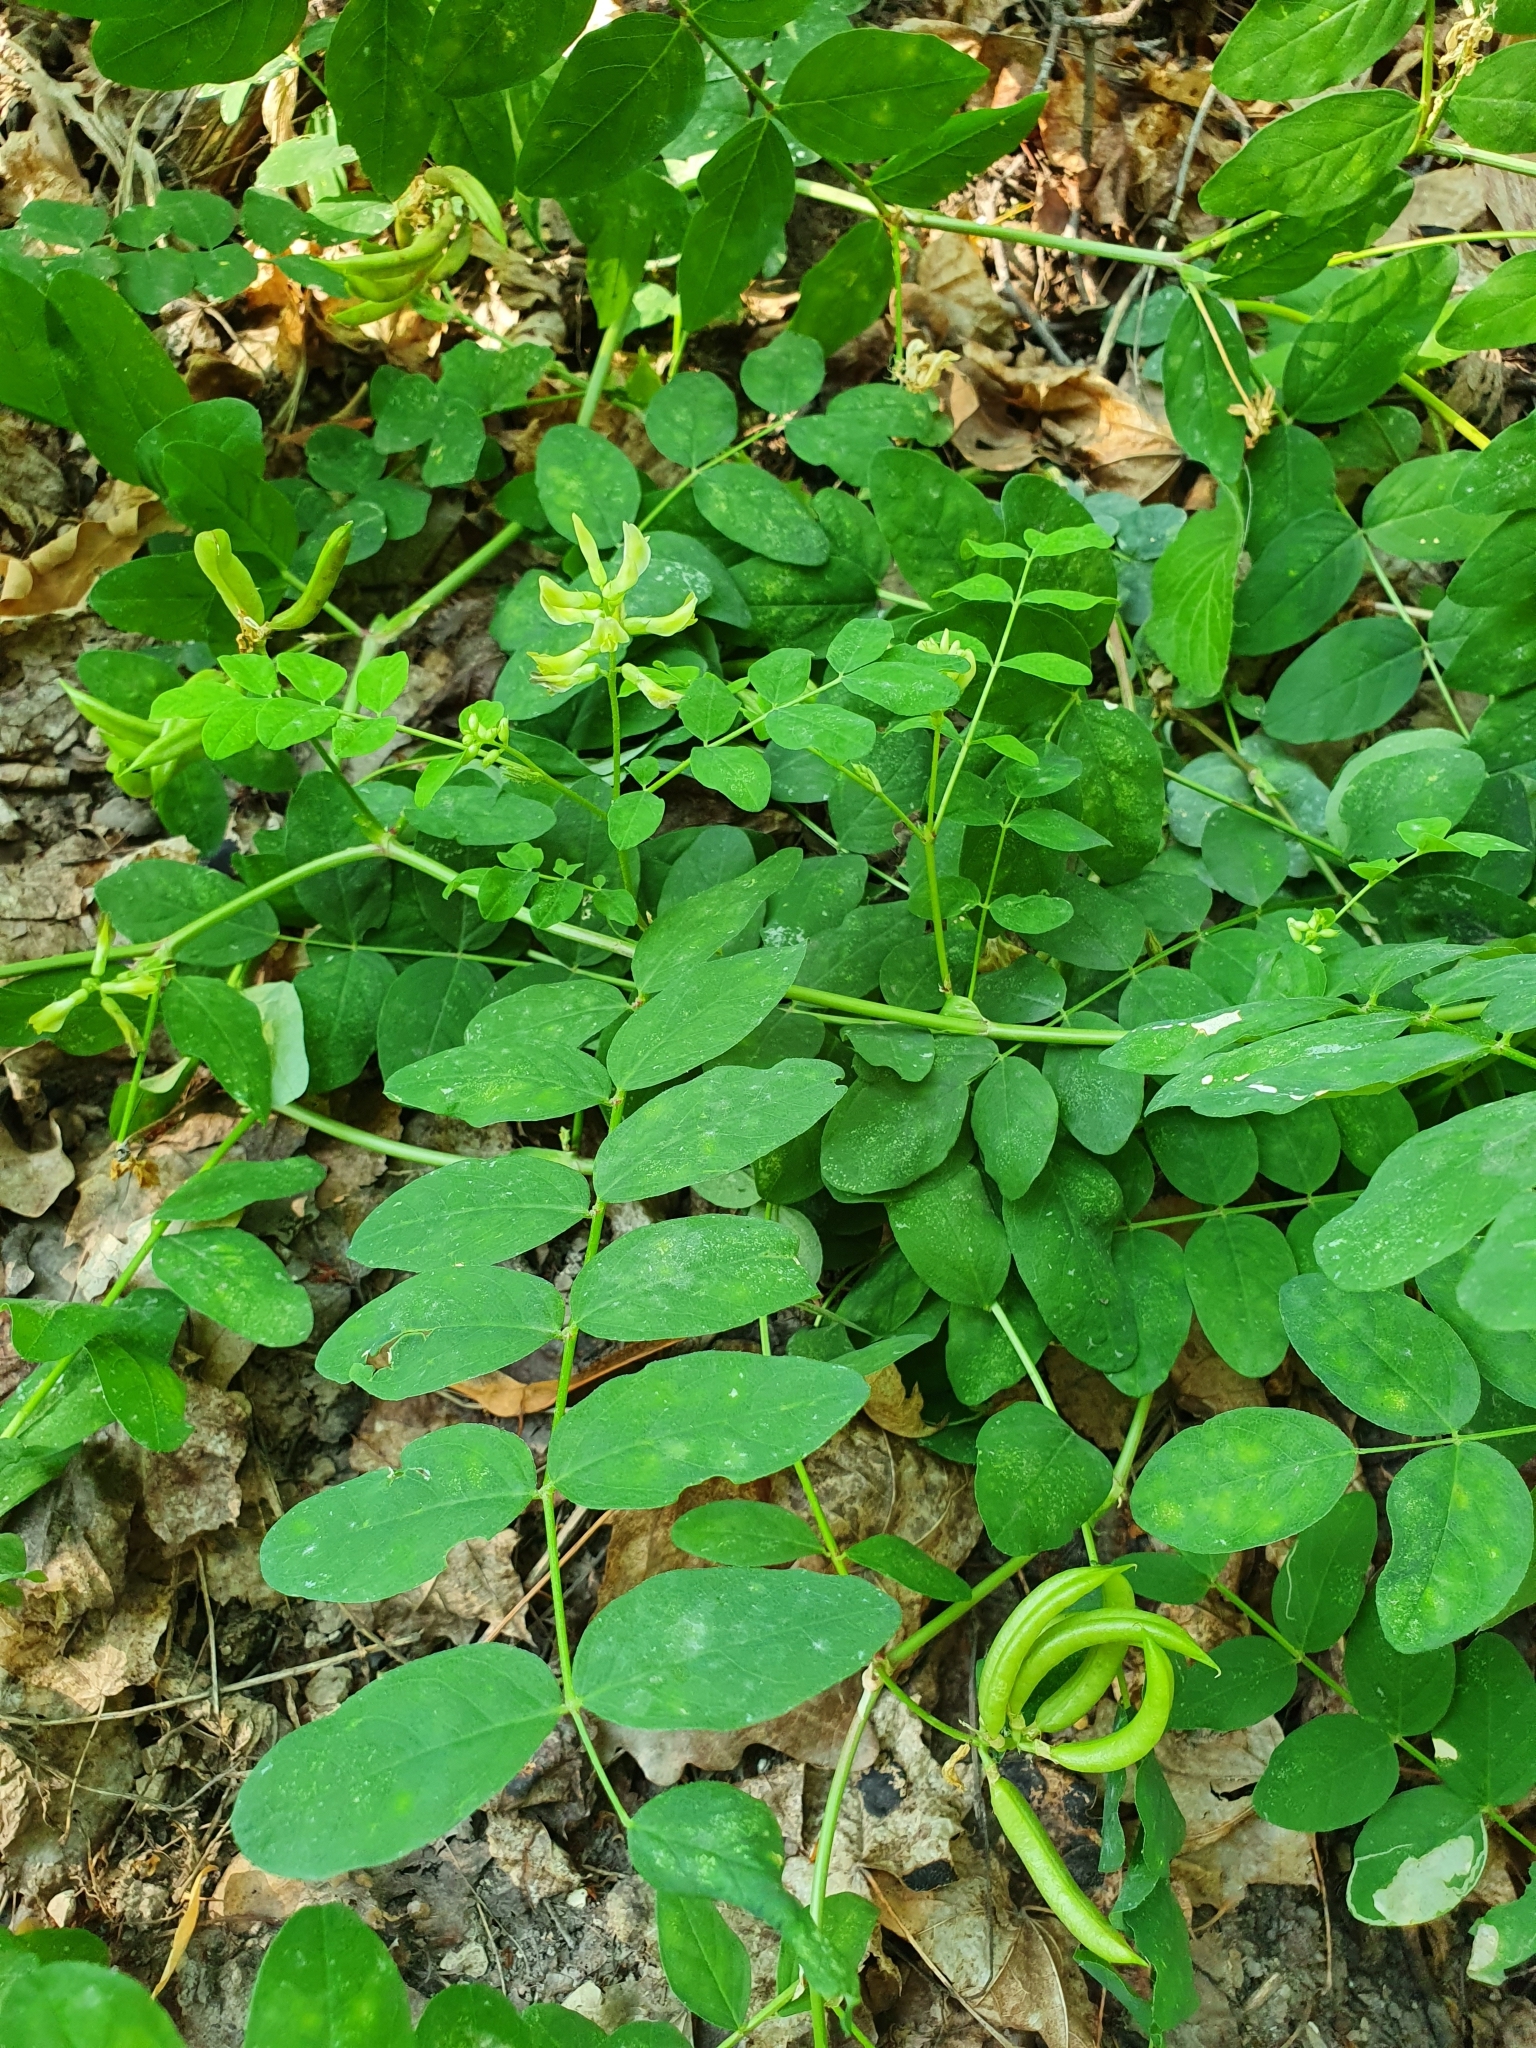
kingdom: Plantae
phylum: Tracheophyta
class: Magnoliopsida
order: Fabales
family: Fabaceae
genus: Astragalus
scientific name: Astragalus glycyphyllos
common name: Wild liquorice
